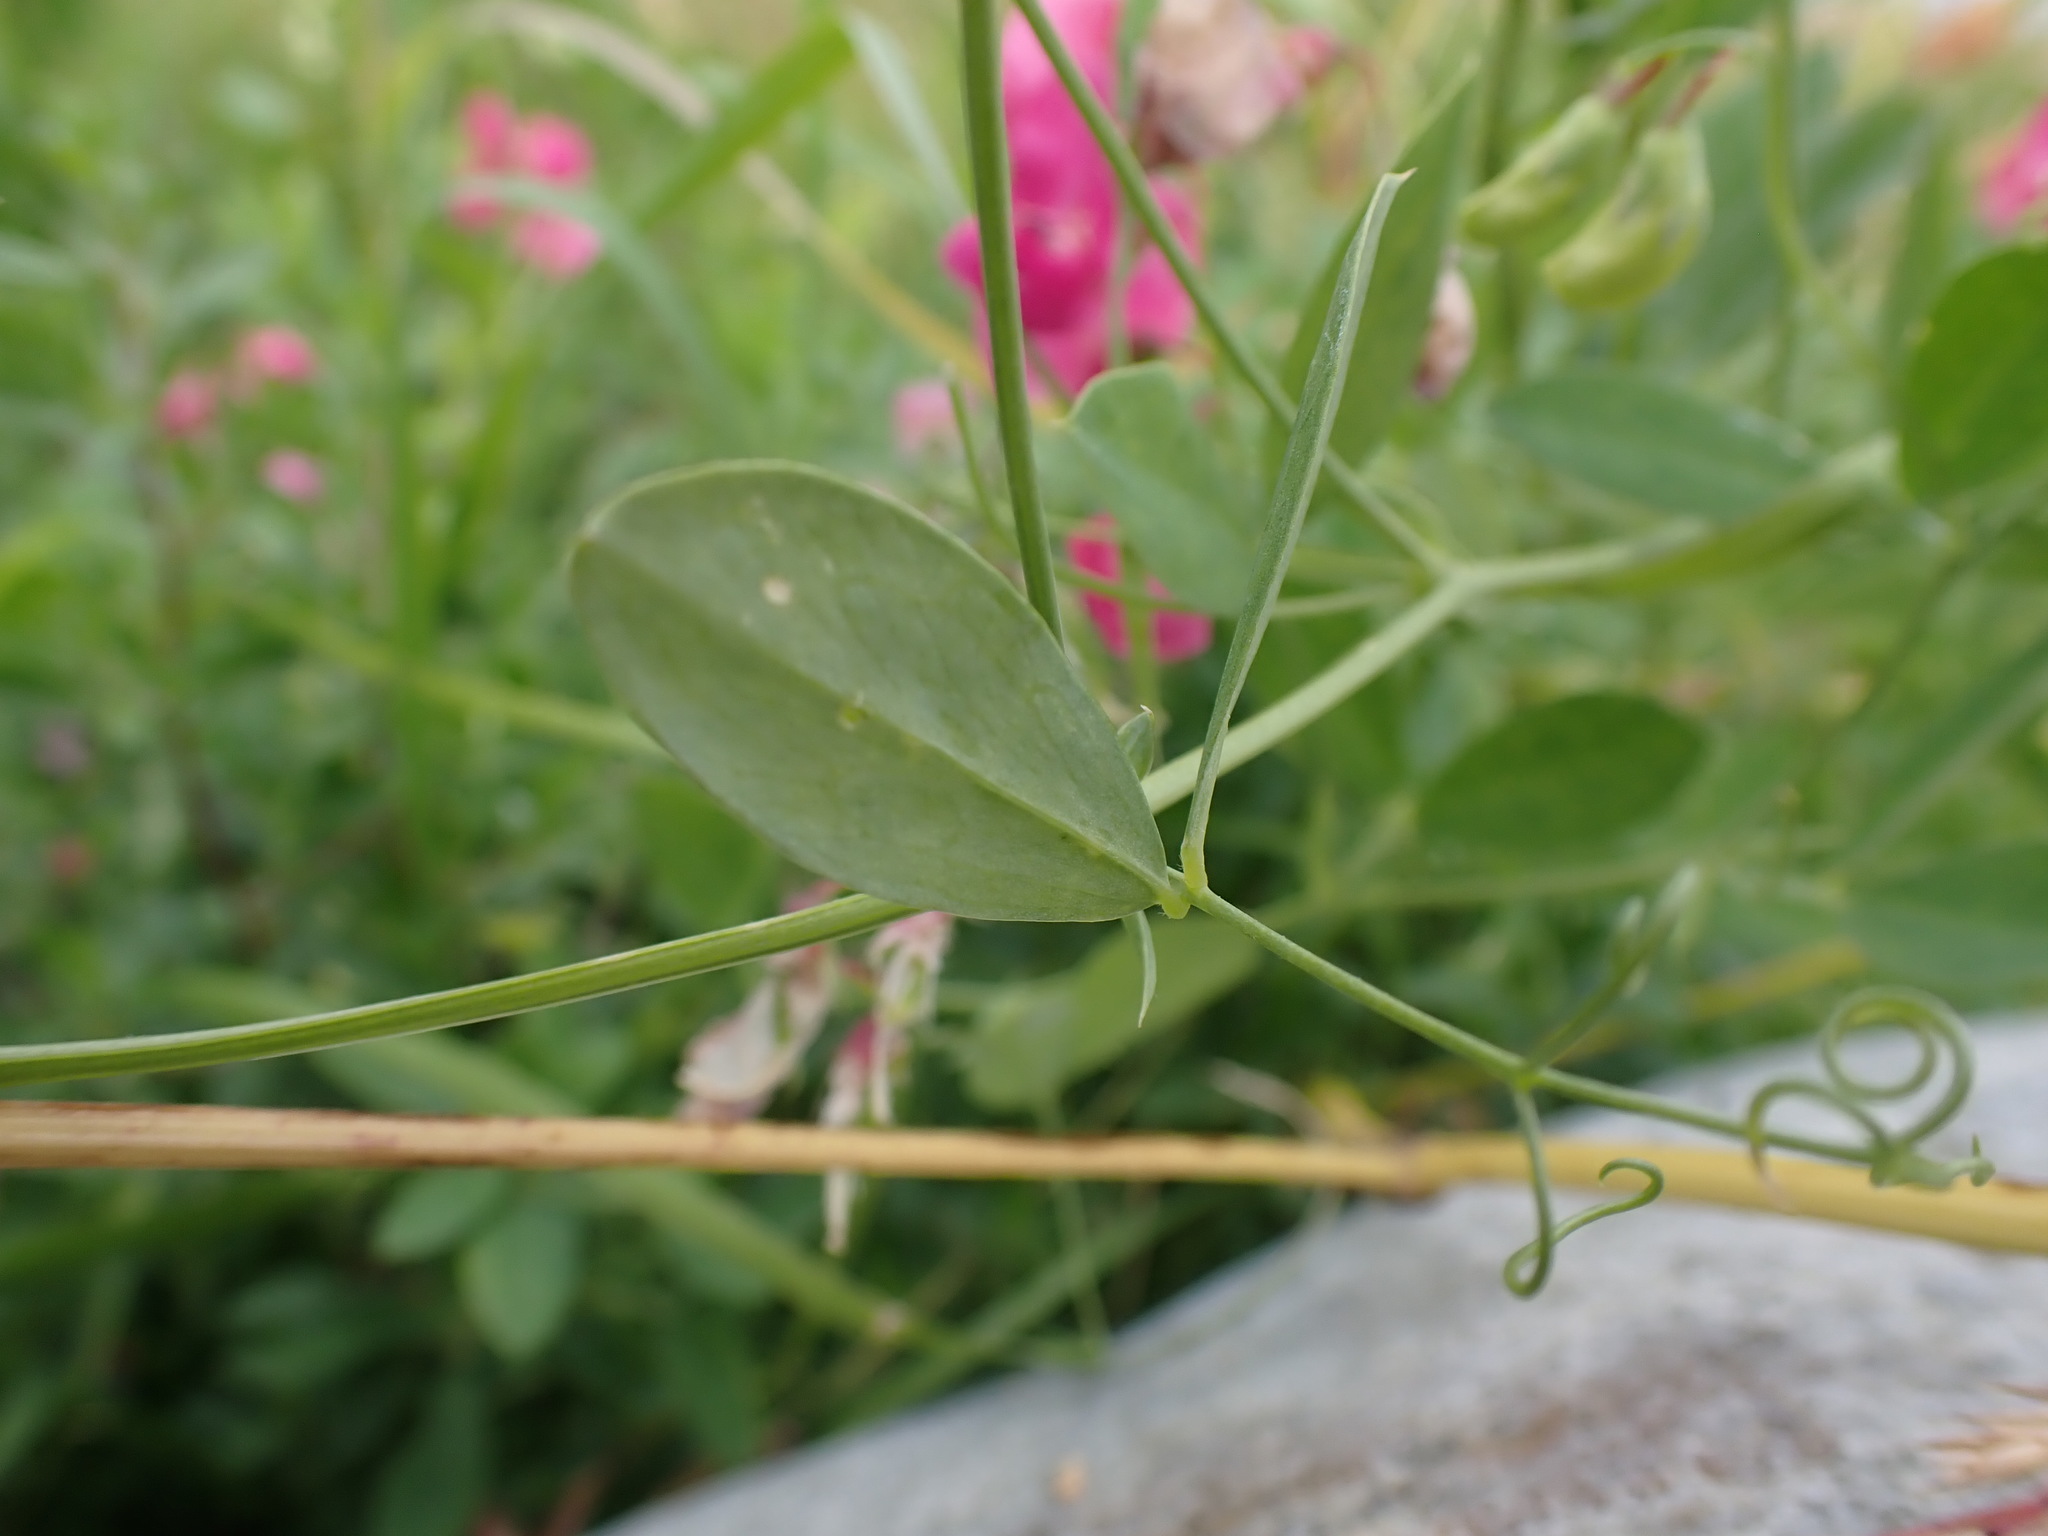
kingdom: Plantae
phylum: Tracheophyta
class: Magnoliopsida
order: Fabales
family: Fabaceae
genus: Lathyrus
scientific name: Lathyrus tuberosus
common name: Tuberous pea
